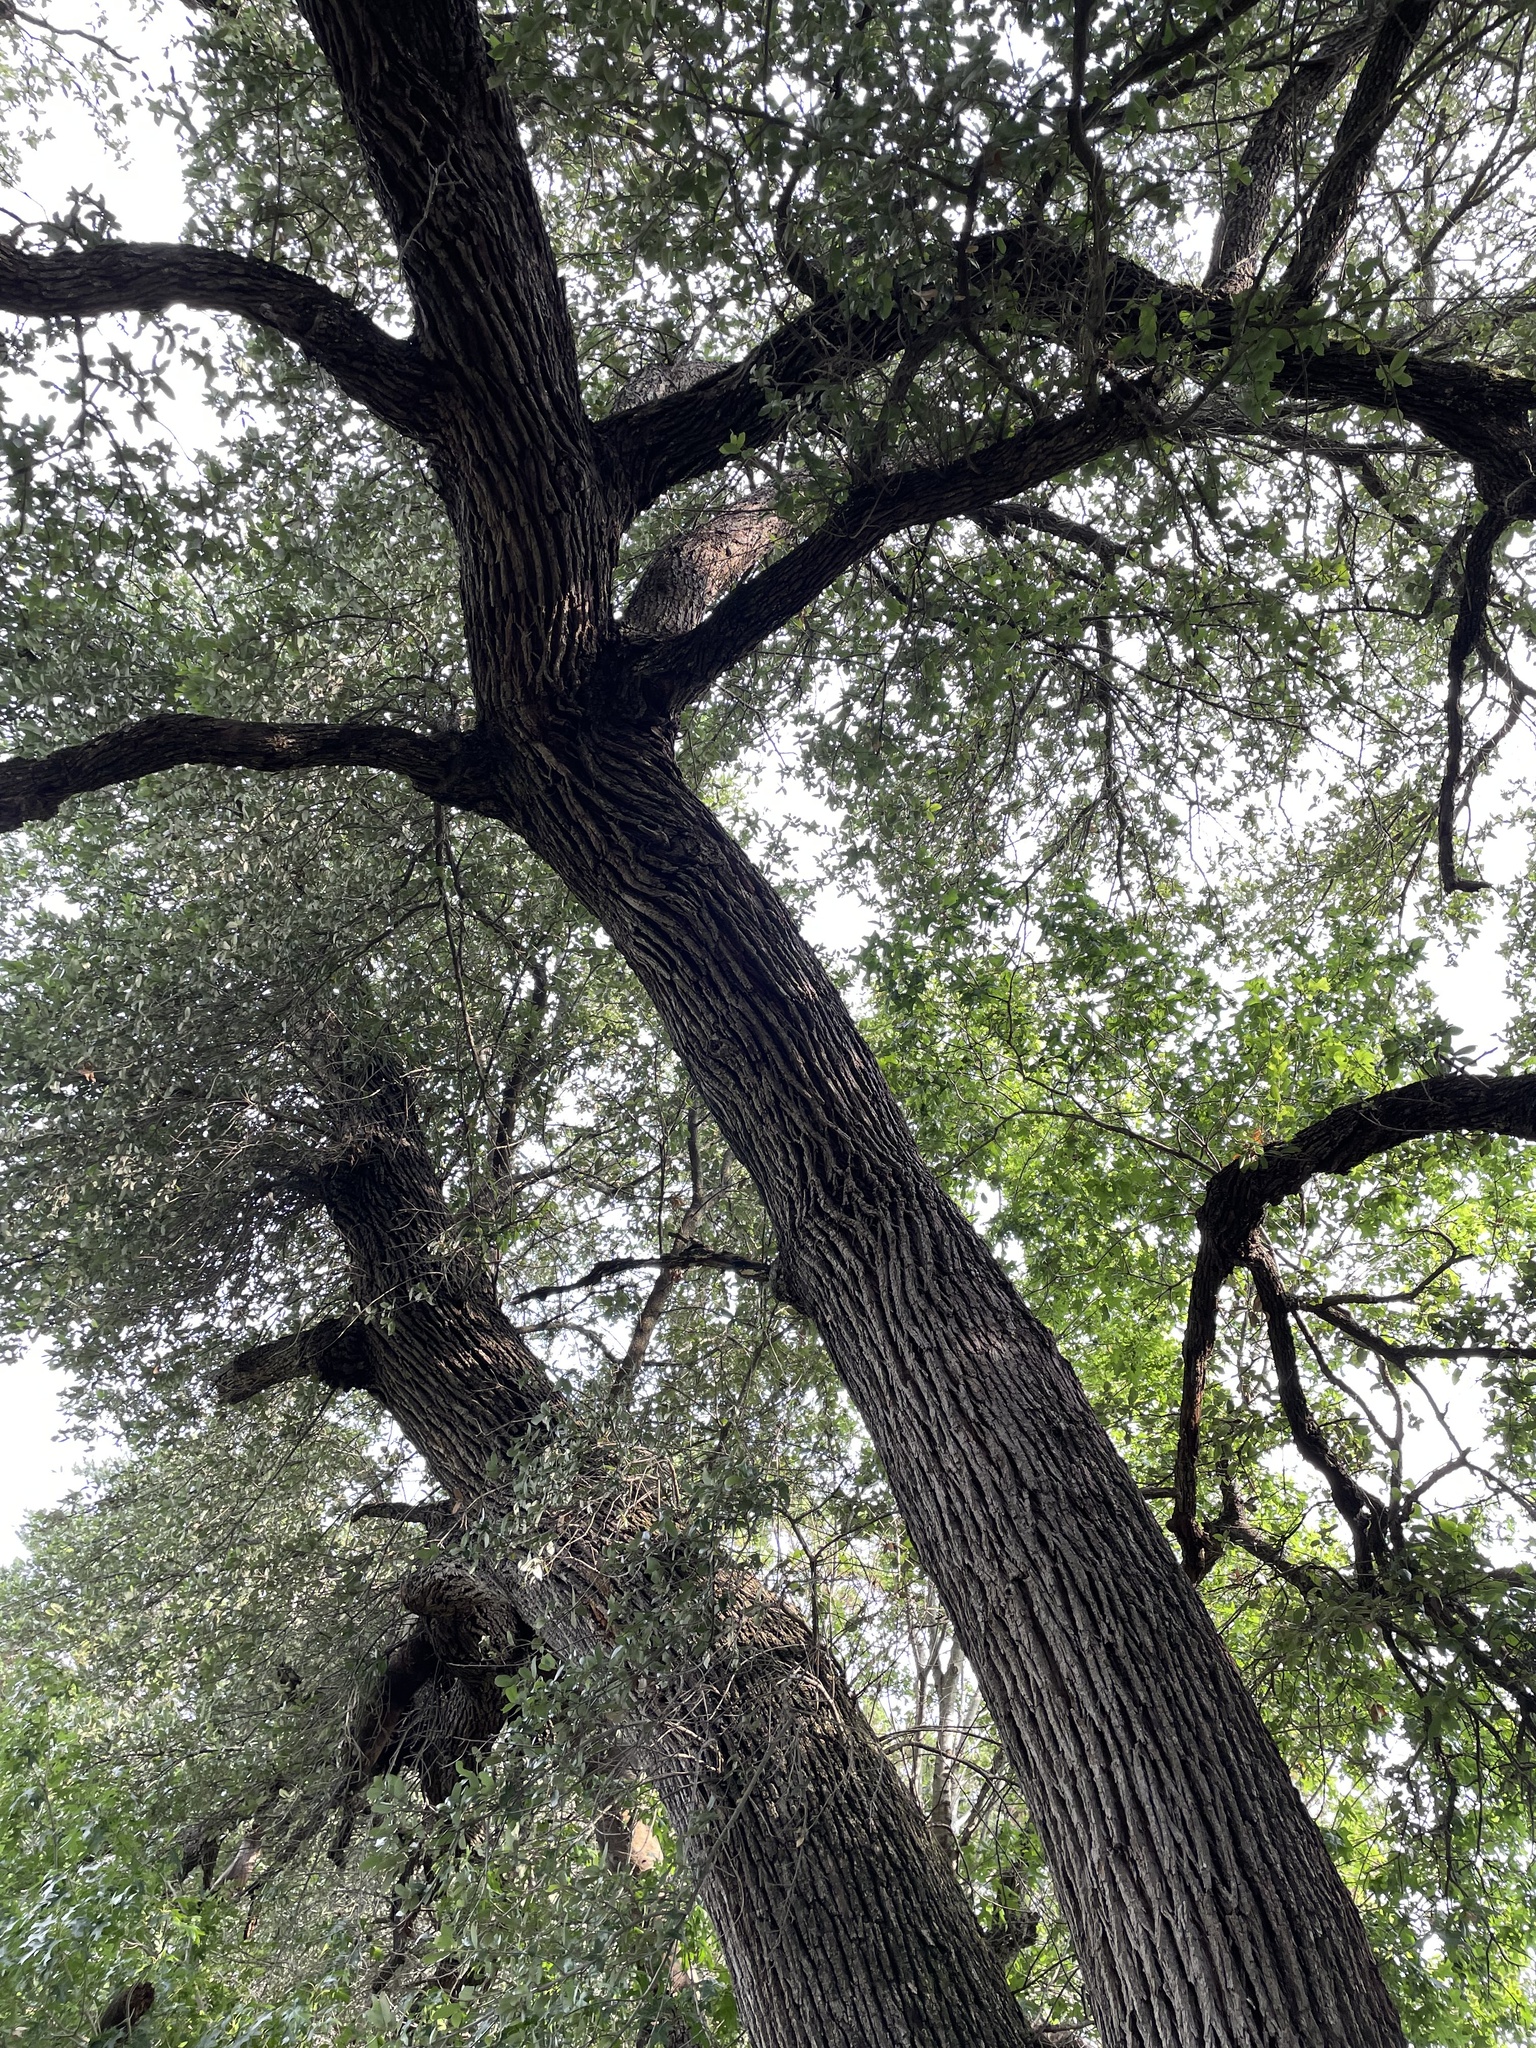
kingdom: Plantae
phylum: Tracheophyta
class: Magnoliopsida
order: Fagales
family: Fagaceae
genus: Quercus
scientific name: Quercus fusiformis
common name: Texas live oak
